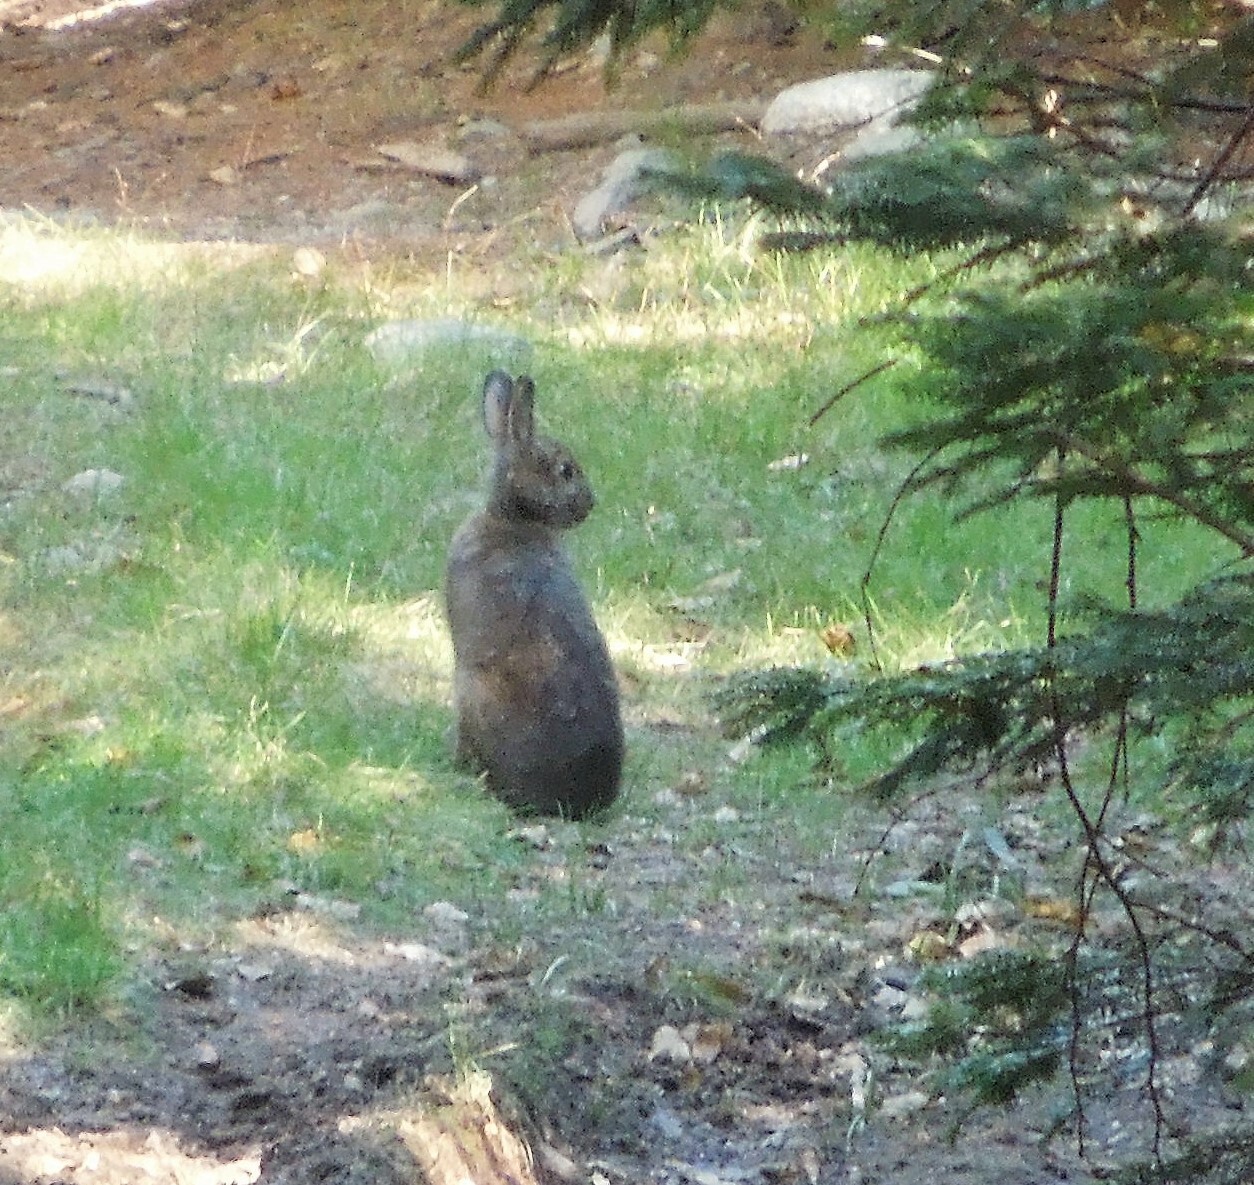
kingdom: Animalia
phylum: Chordata
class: Mammalia
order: Lagomorpha
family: Leporidae
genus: Lepus
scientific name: Lepus americanus
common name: Snowshoe hare
